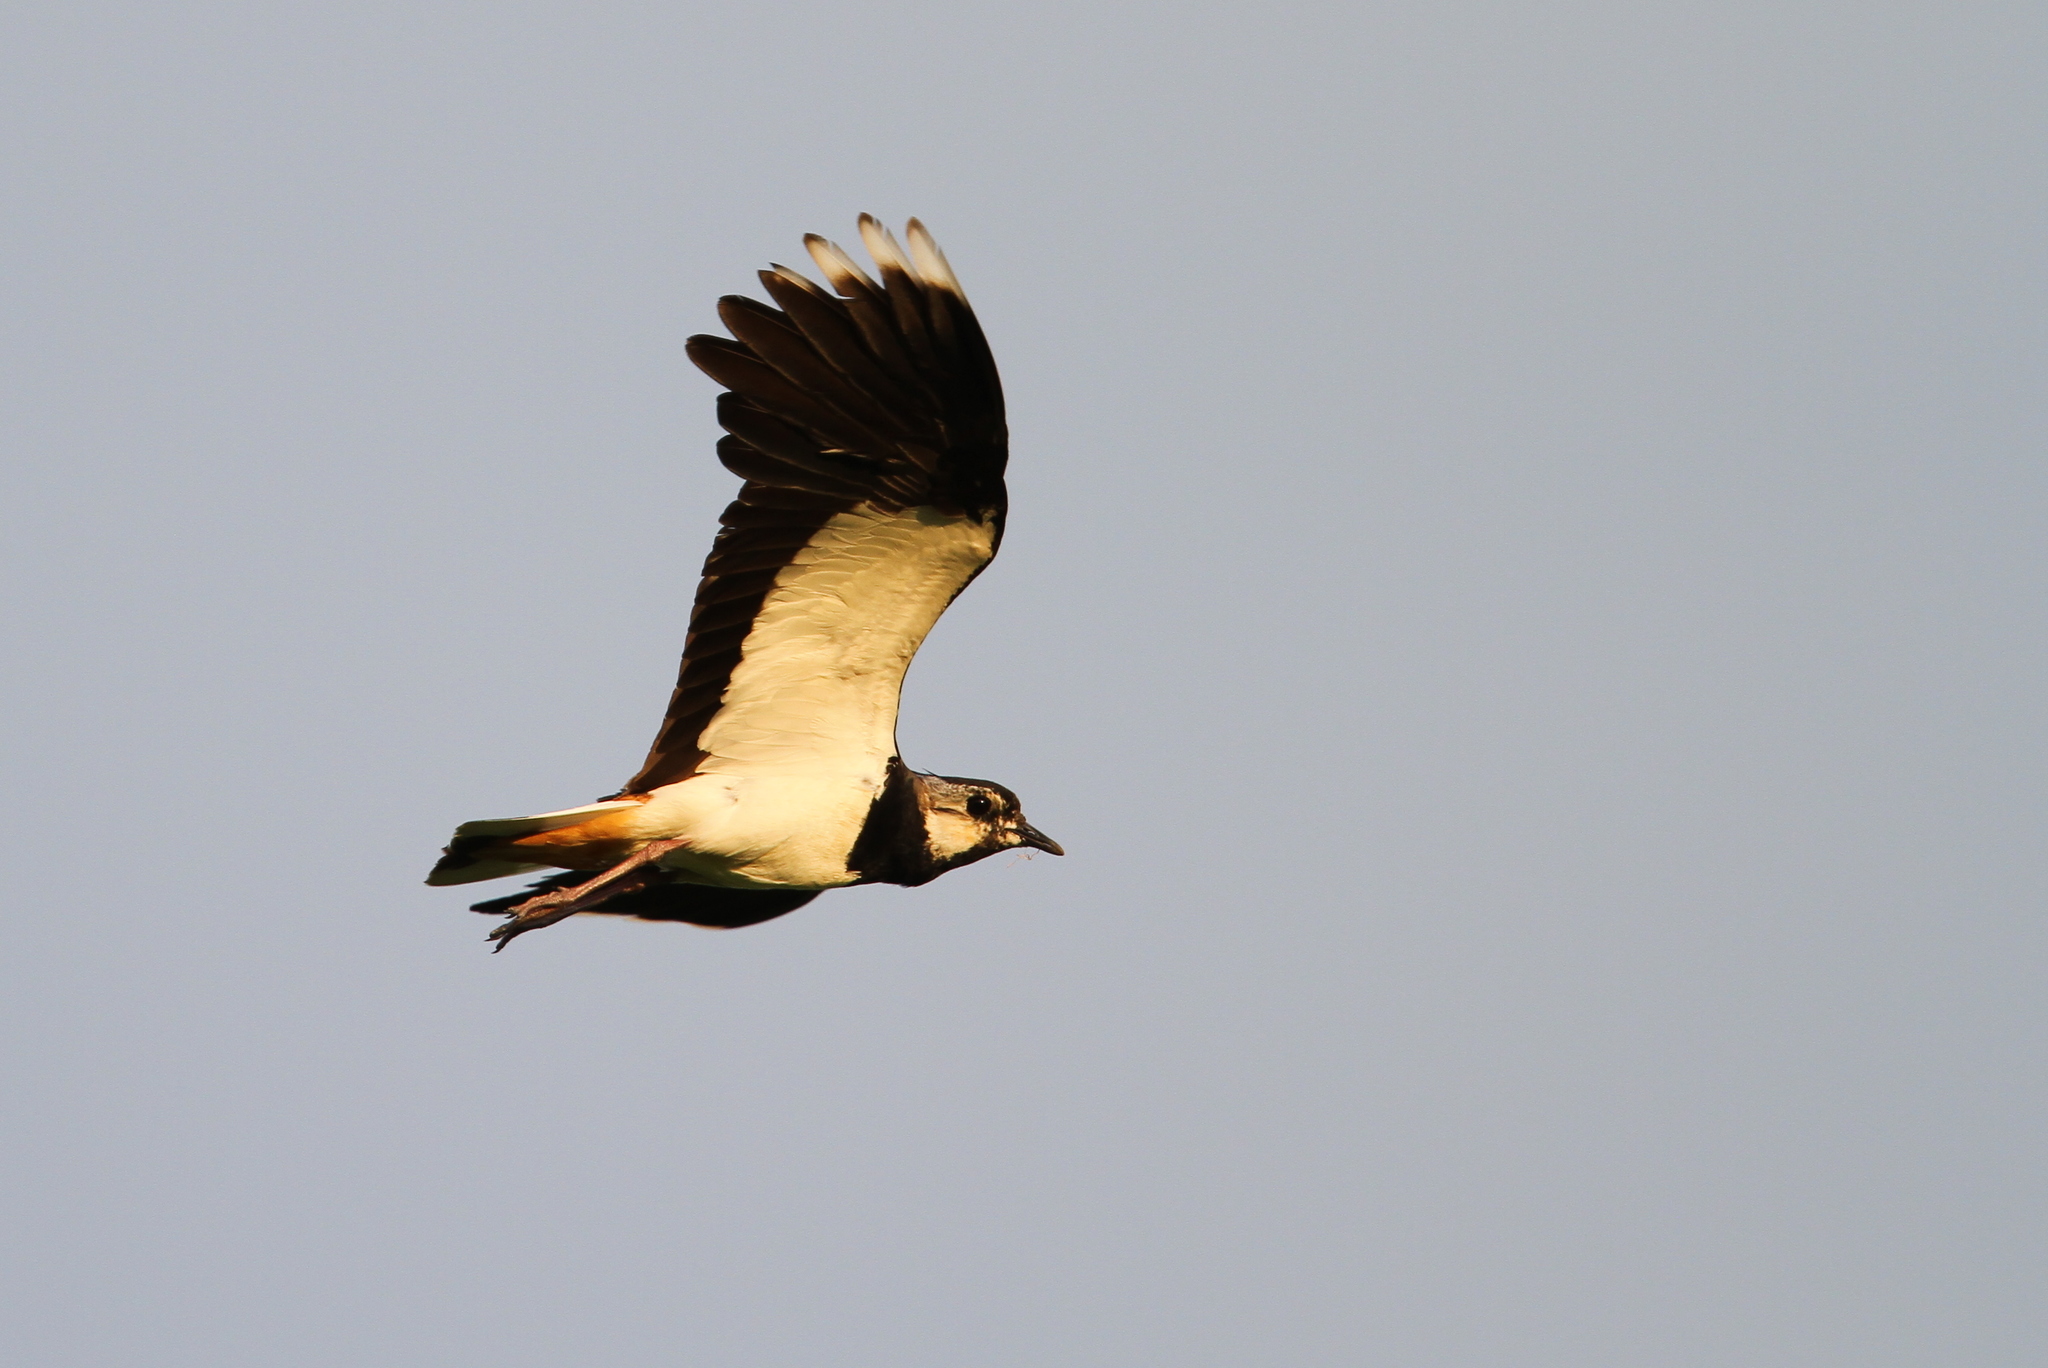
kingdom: Animalia
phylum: Chordata
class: Aves
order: Charadriiformes
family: Charadriidae
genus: Vanellus
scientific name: Vanellus vanellus
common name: Northern lapwing
